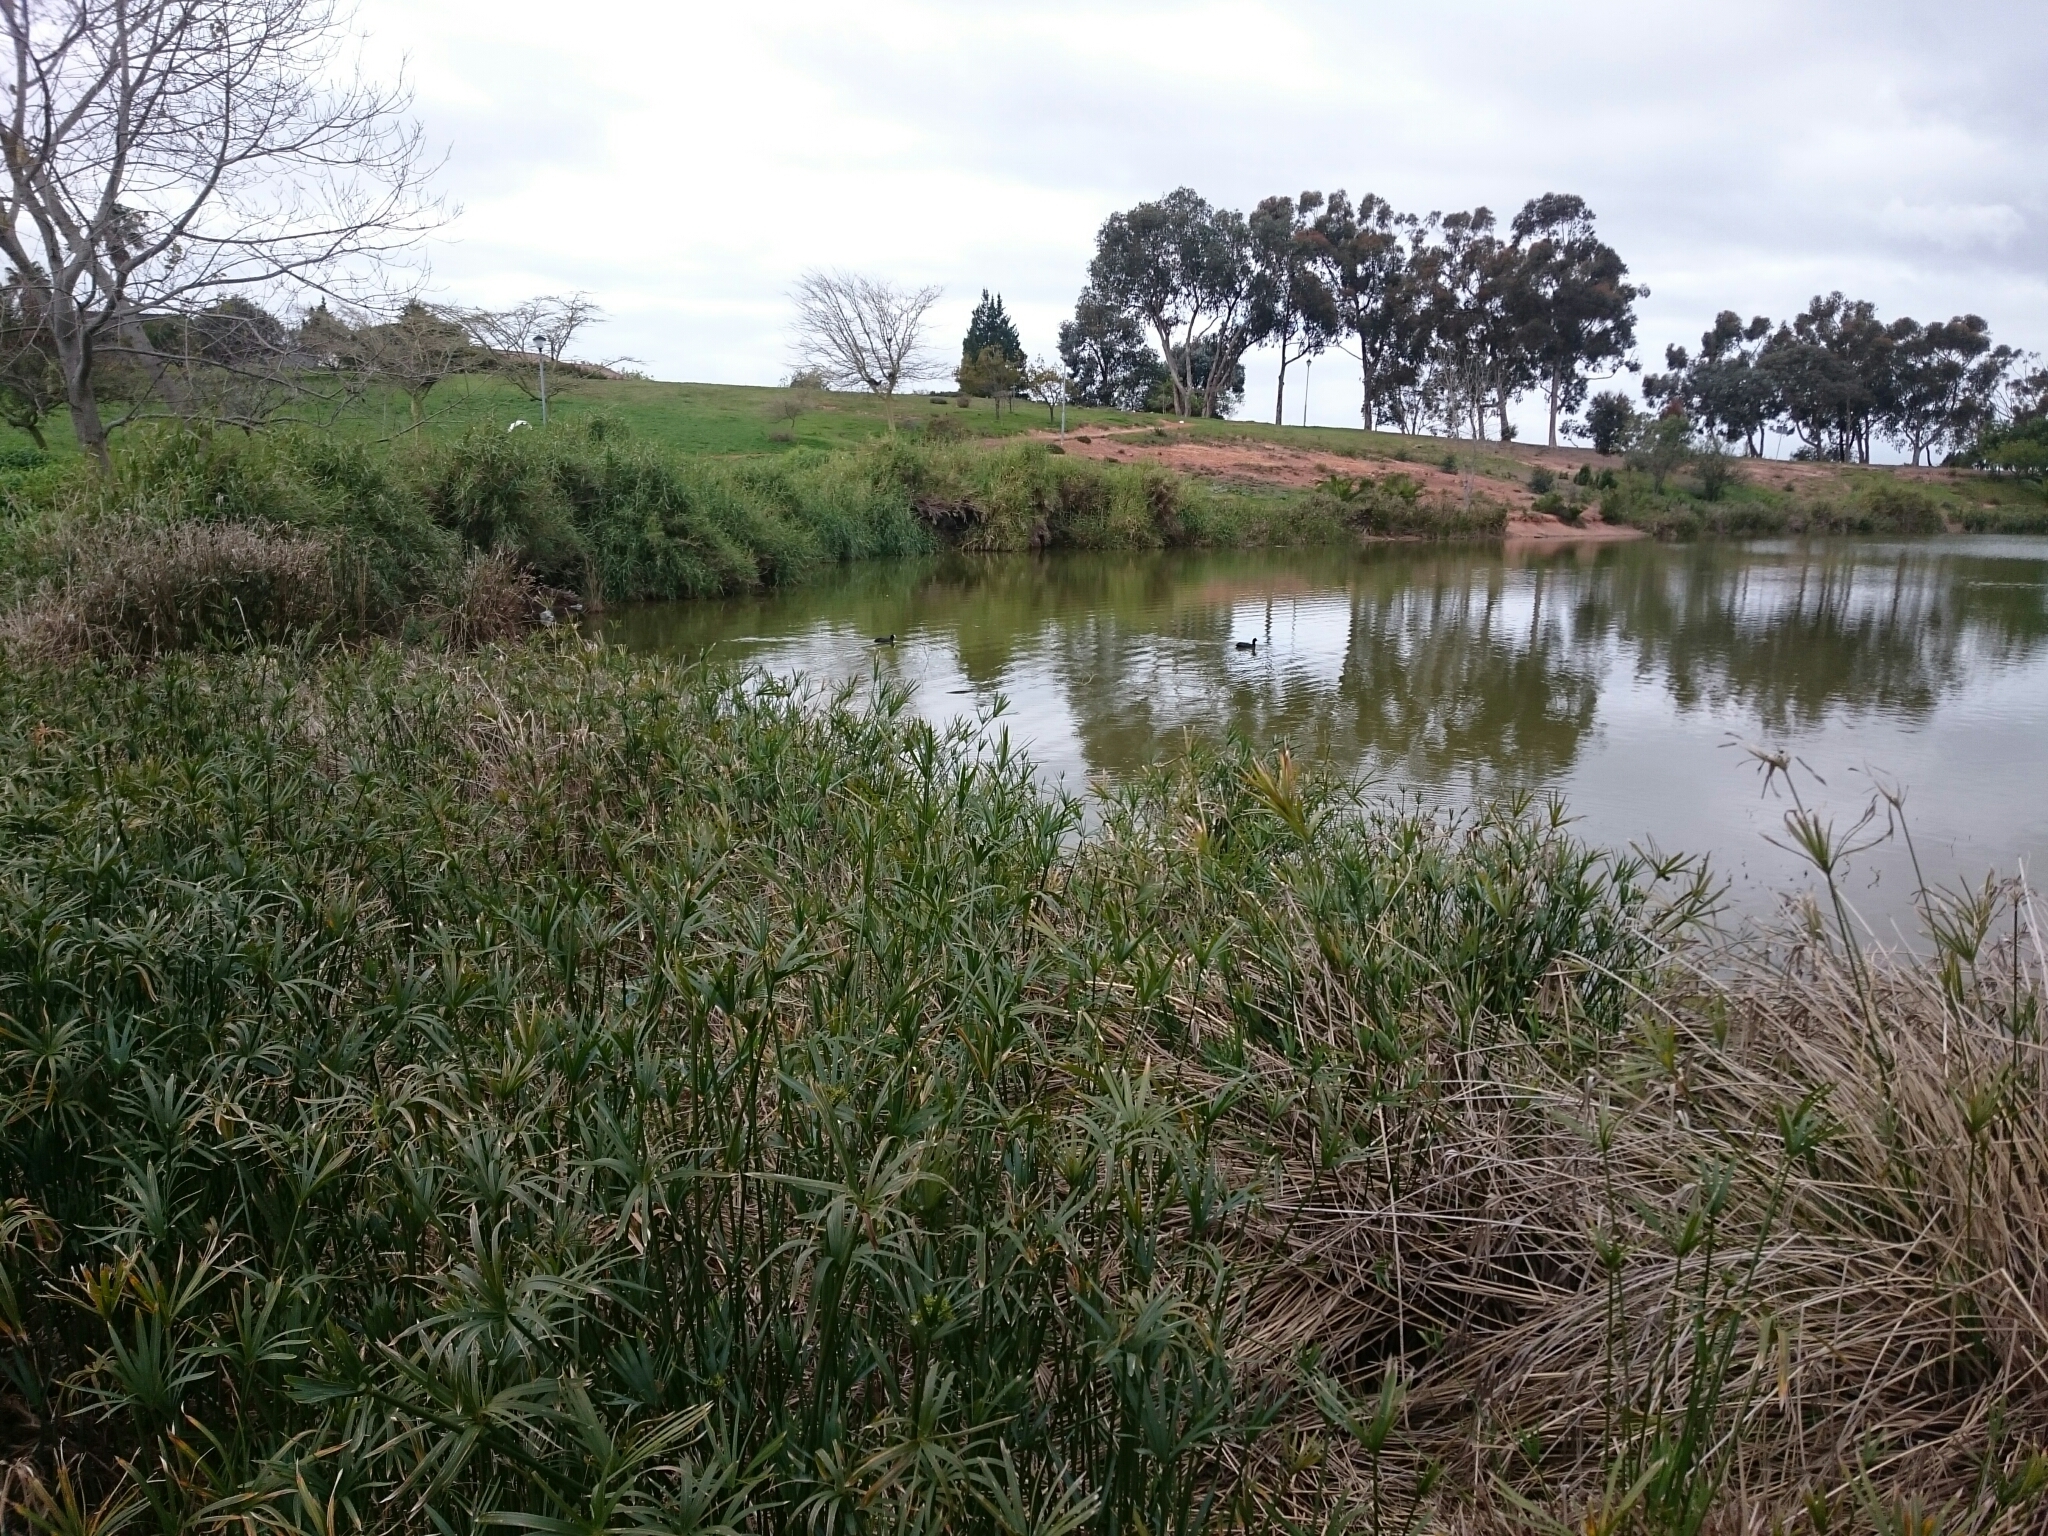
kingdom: Animalia
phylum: Chordata
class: Aves
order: Gruiformes
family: Rallidae
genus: Fulica
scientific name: Fulica cristata
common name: Red-knobbed coot
